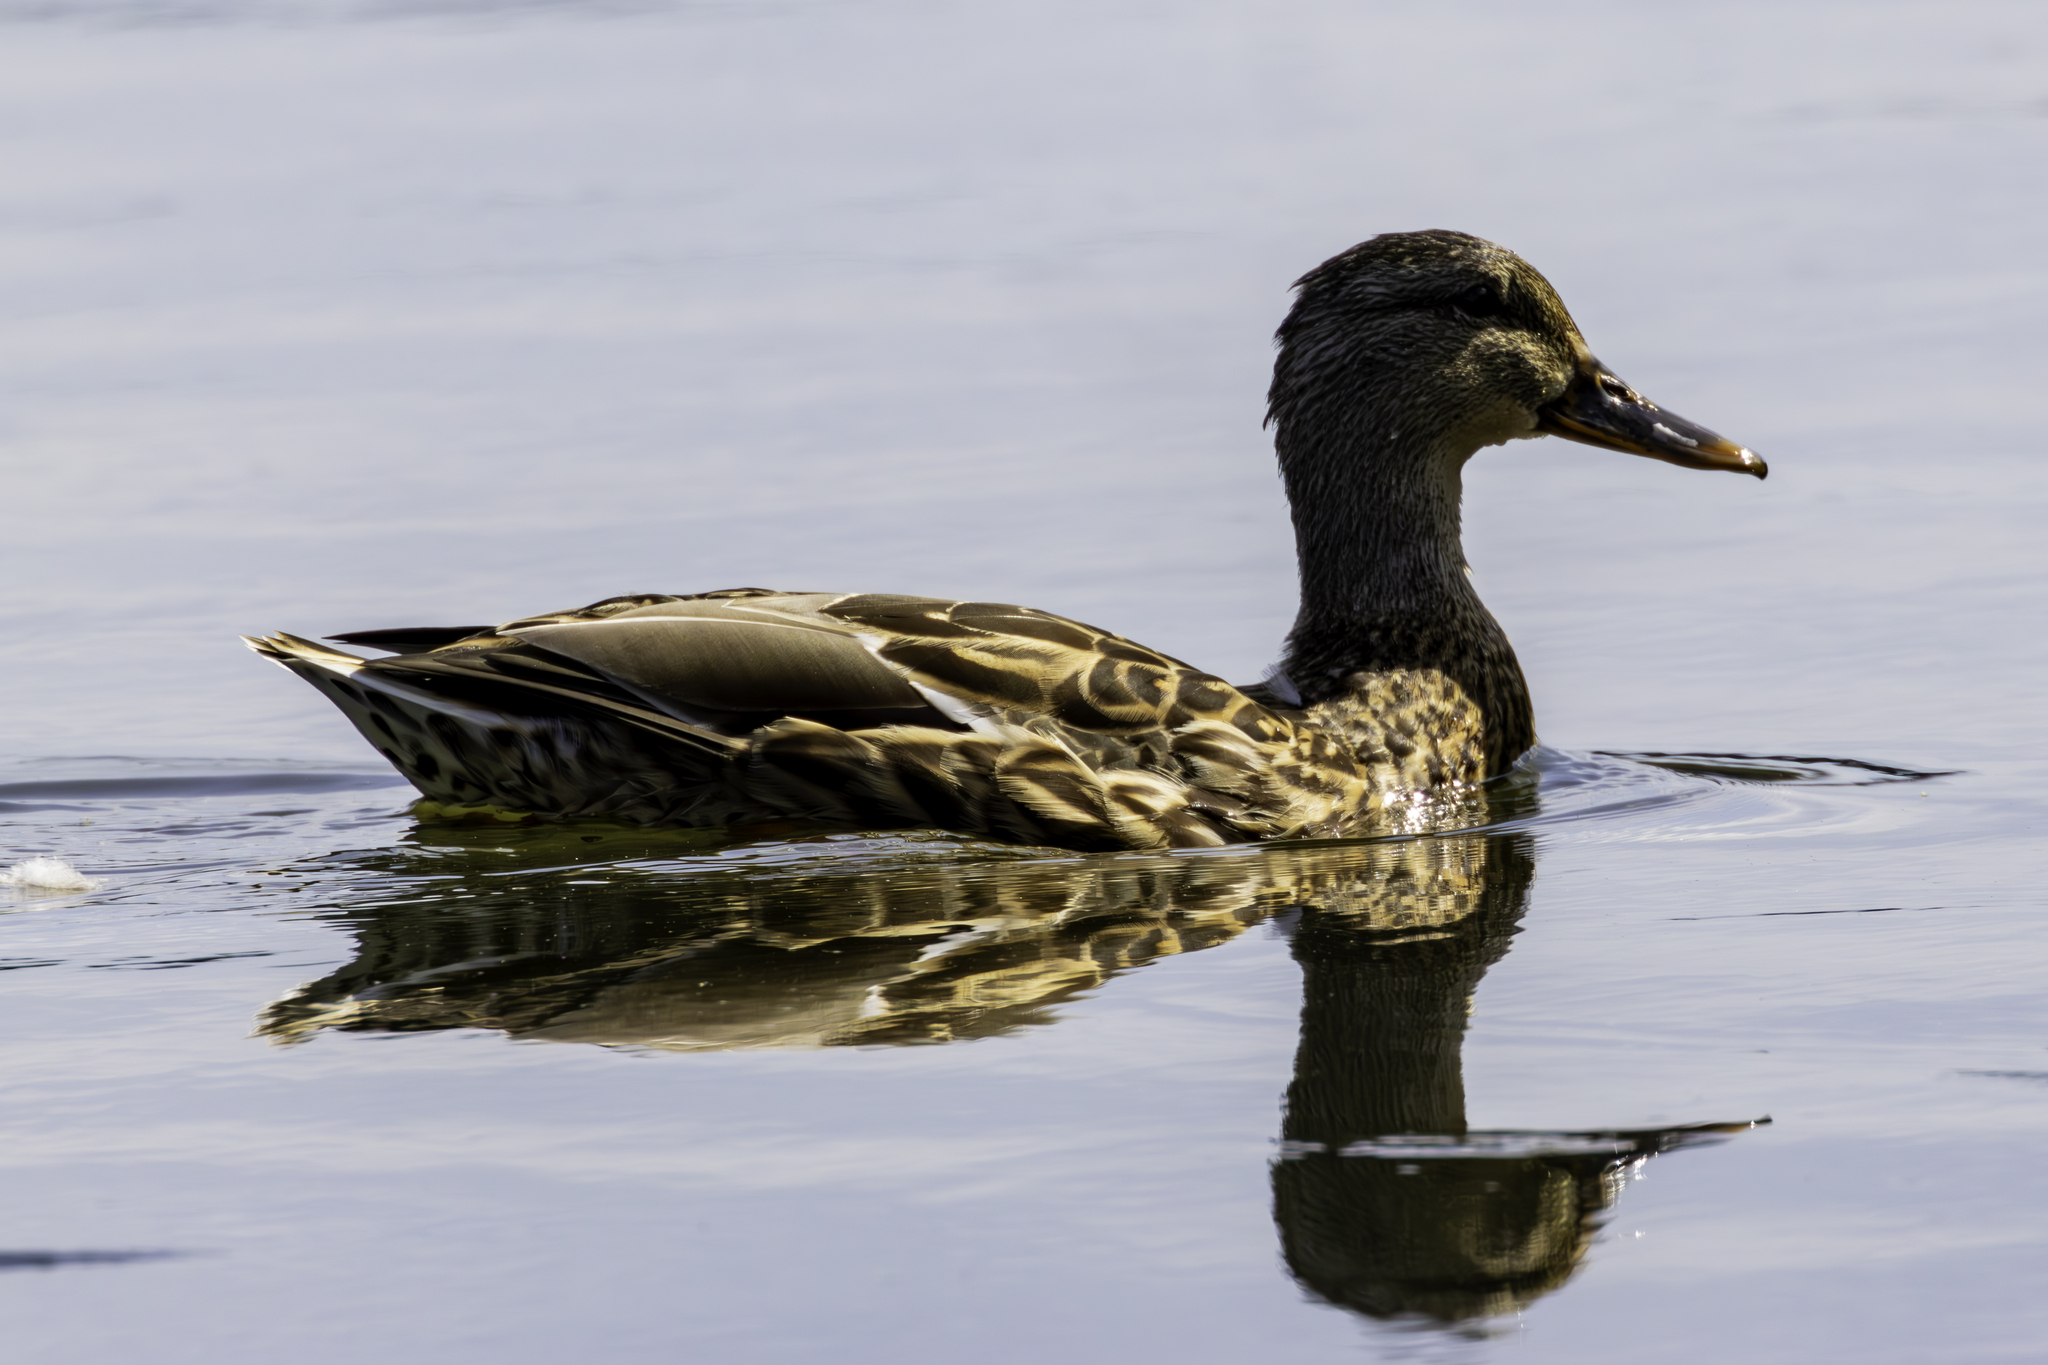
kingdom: Animalia
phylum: Chordata
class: Aves
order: Anseriformes
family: Anatidae
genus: Anas
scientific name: Anas platyrhynchos
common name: Mallard
